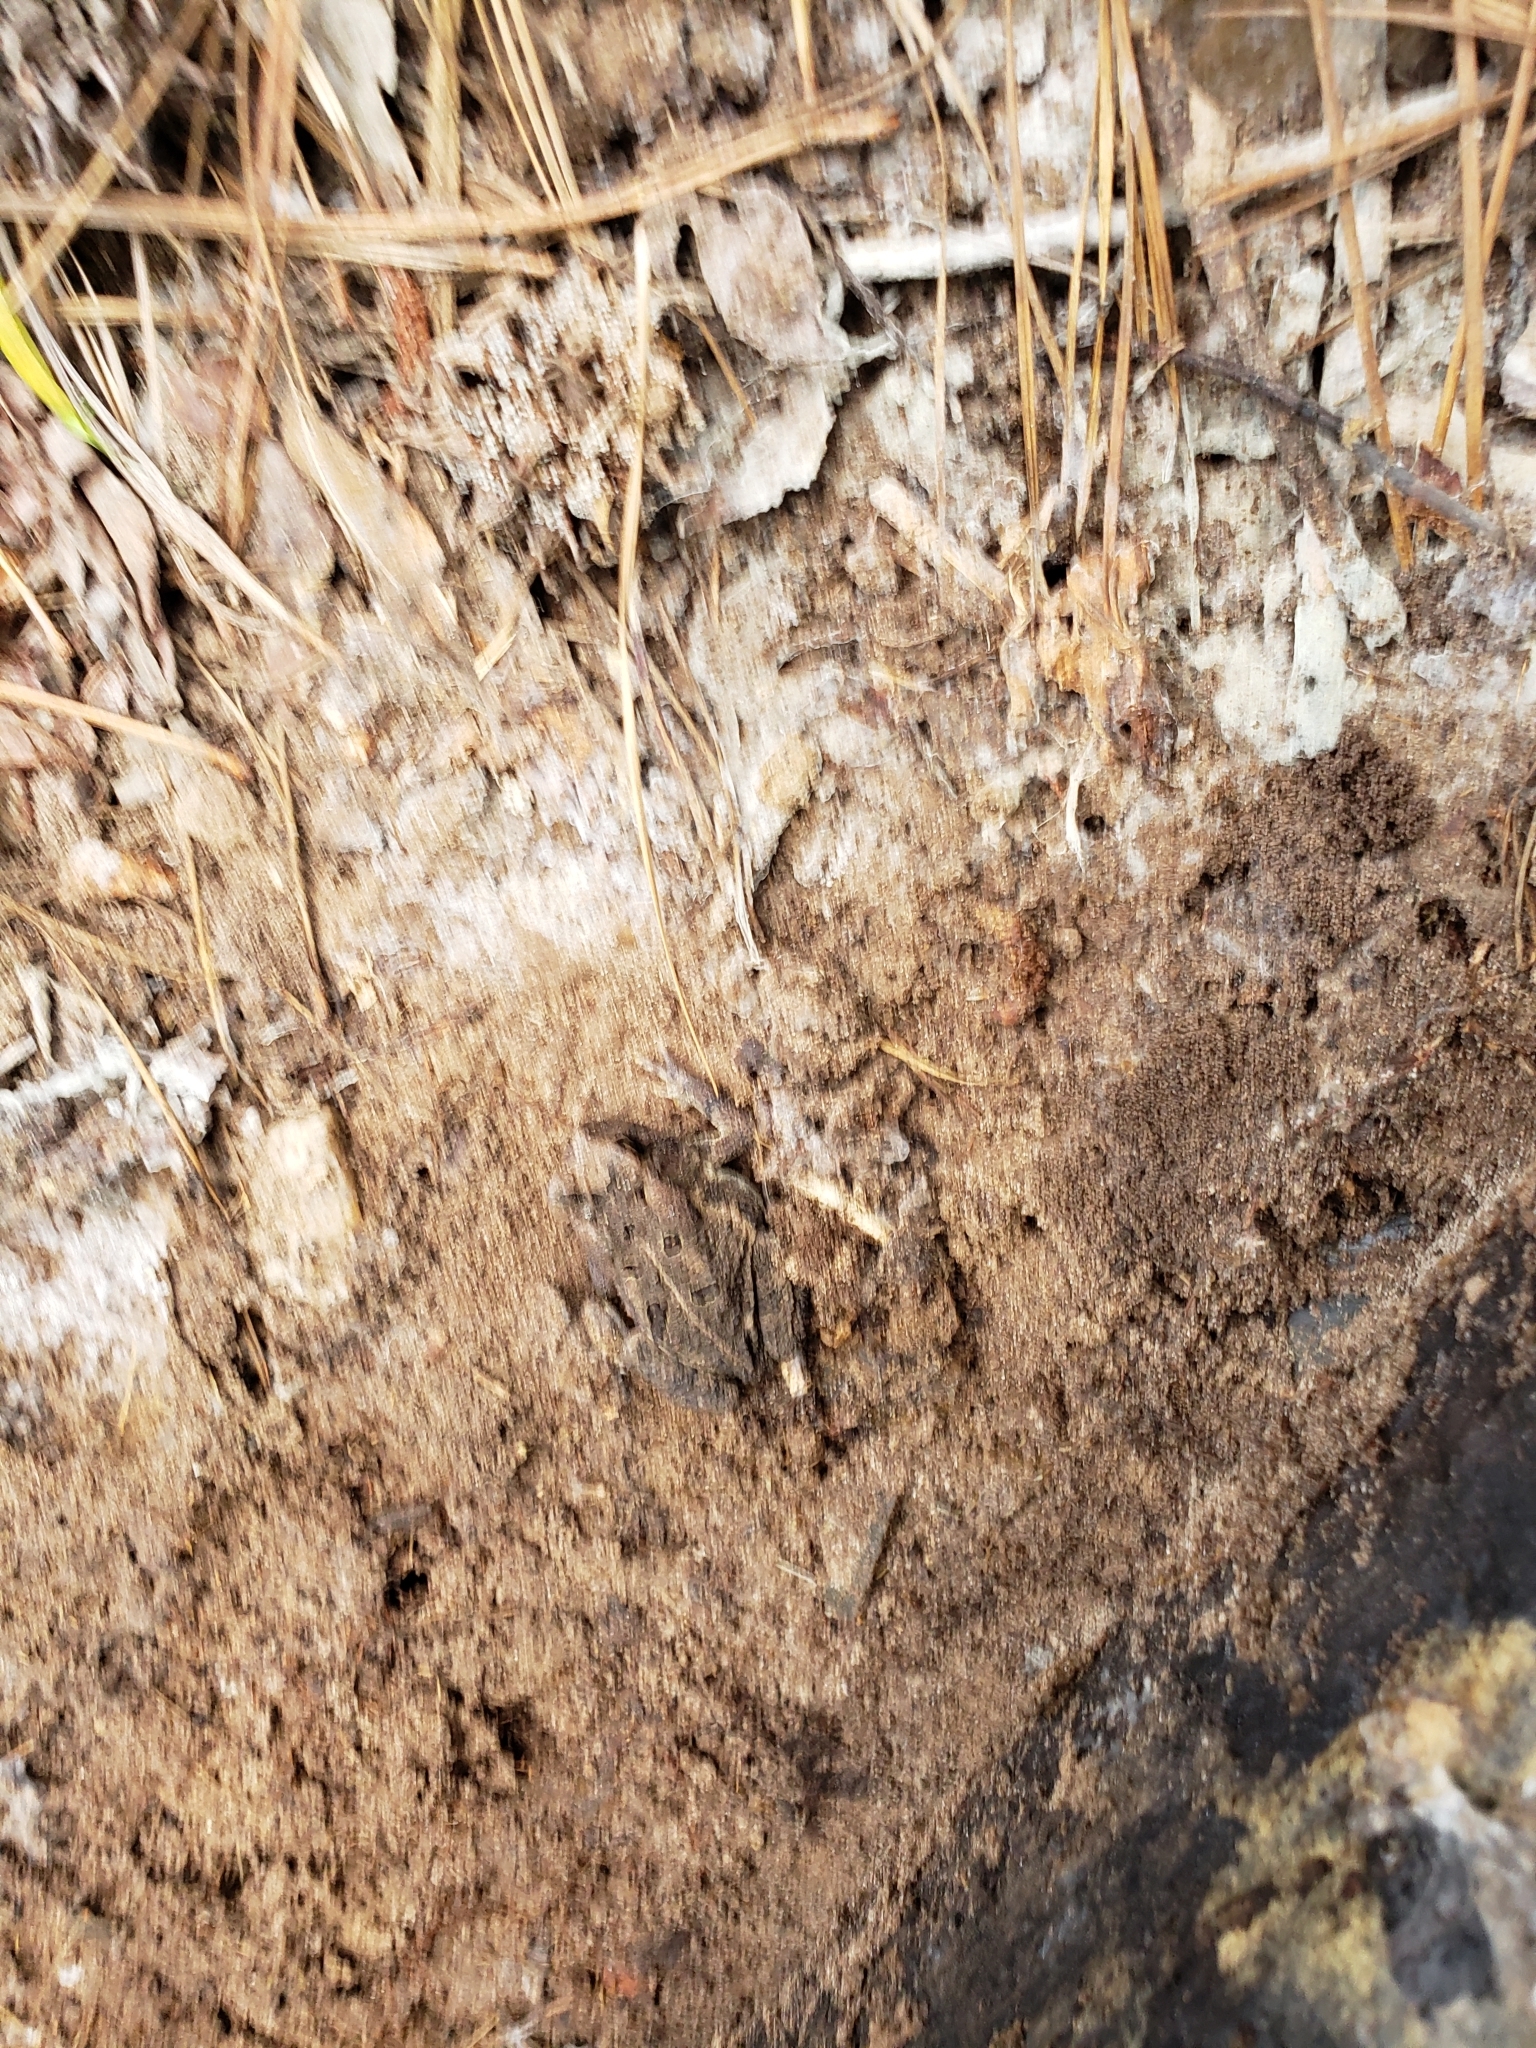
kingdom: Animalia
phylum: Chordata
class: Amphibia
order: Anura
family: Bufonidae
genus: Anaxyrus
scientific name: Anaxyrus fowleri
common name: Fowler's toad
